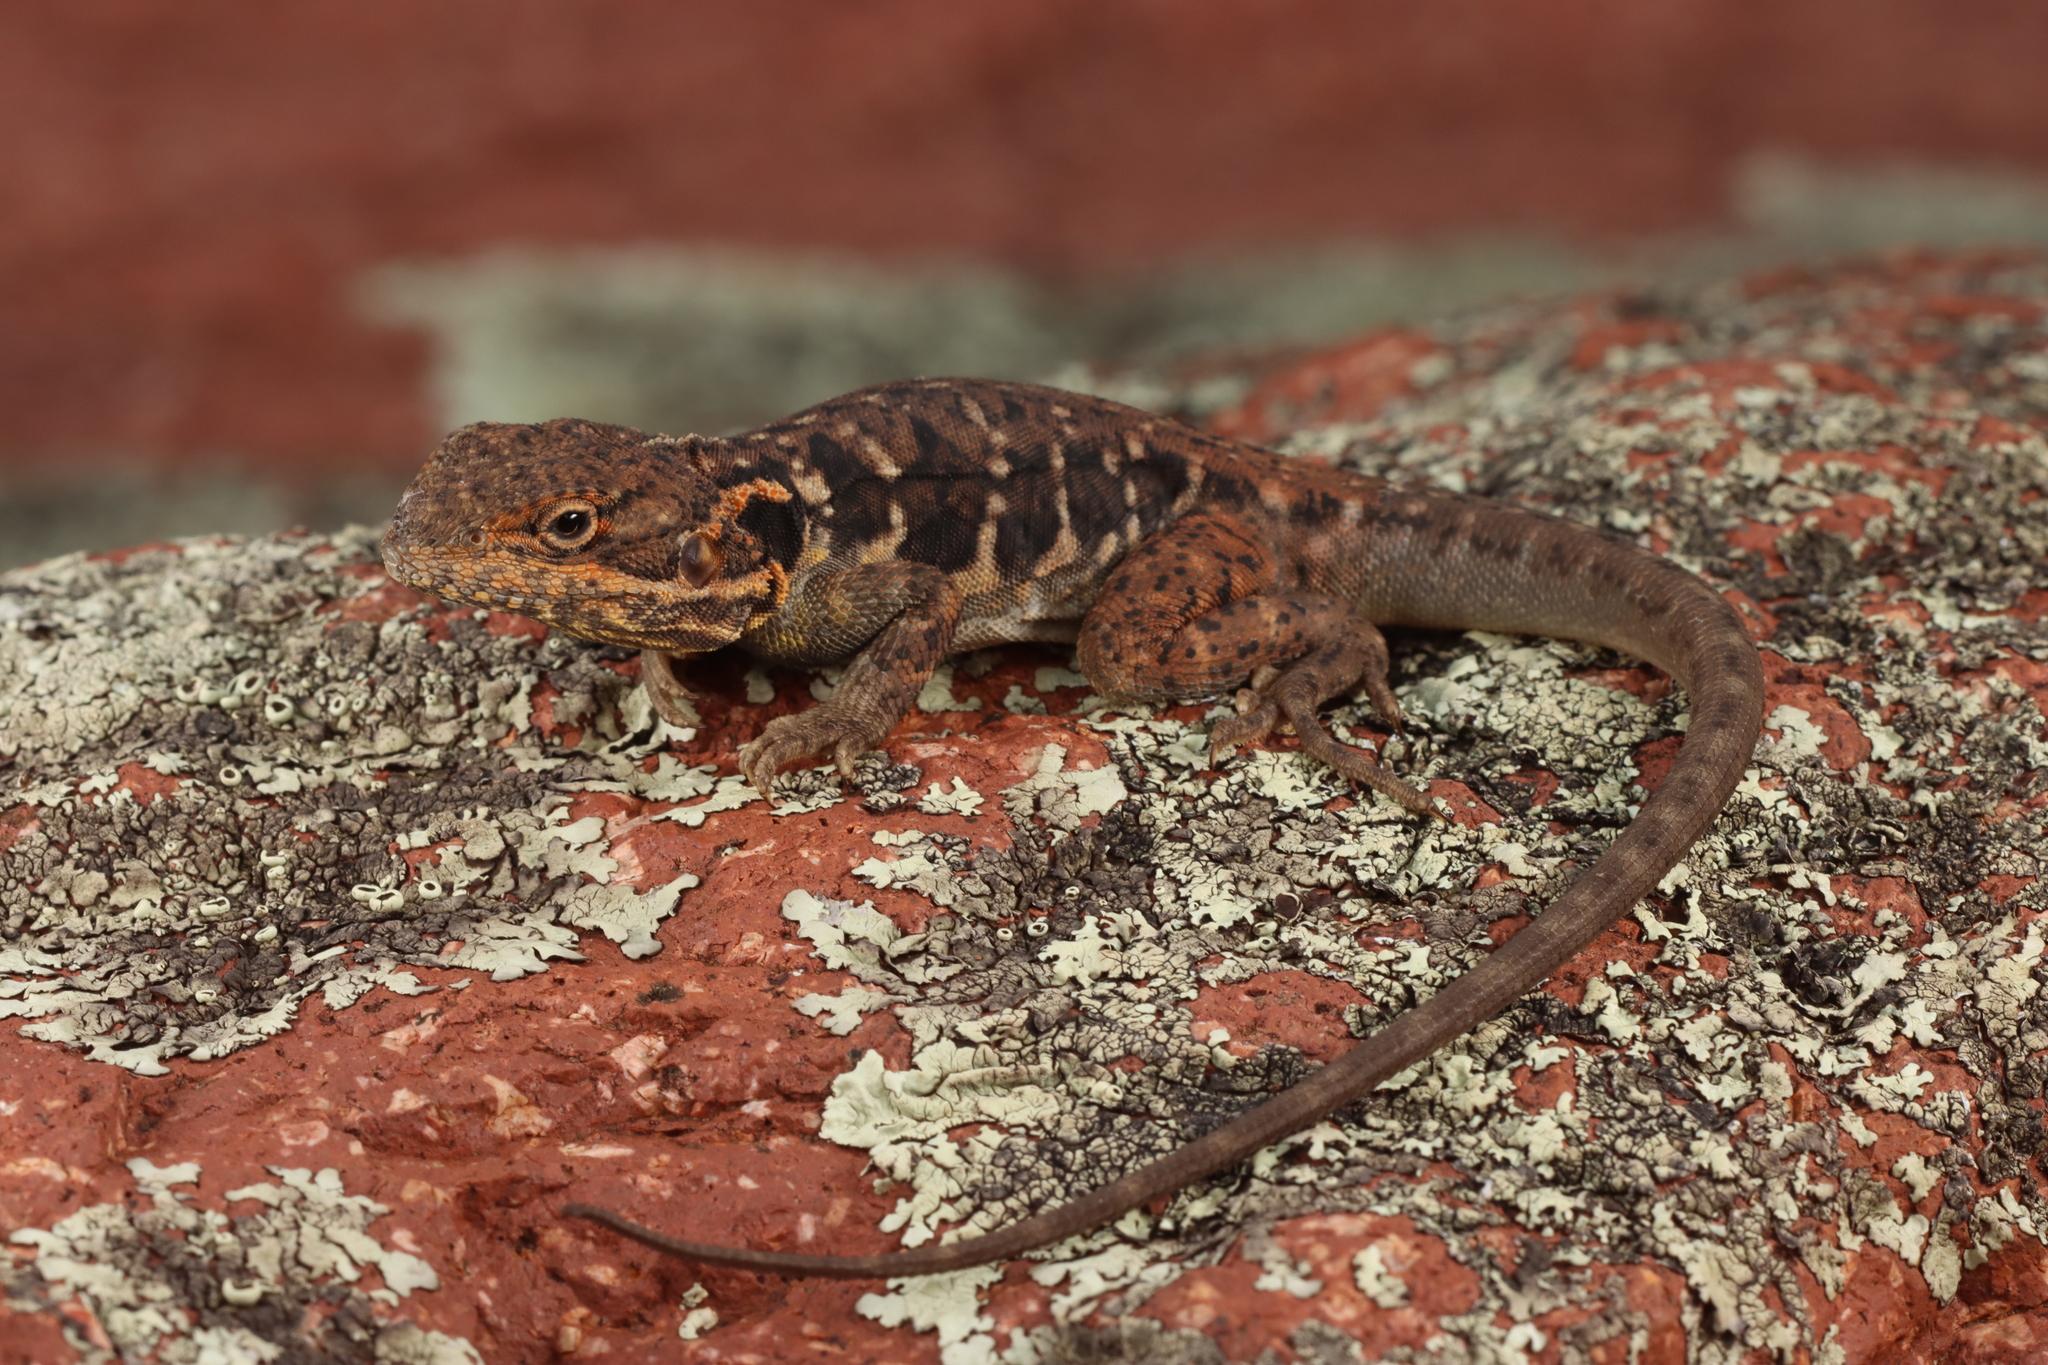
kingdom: Animalia
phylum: Chordata
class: Squamata
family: Agamidae
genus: Ctenophorus
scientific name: Ctenophorus fionni
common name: Peninsula crevis-dragon
